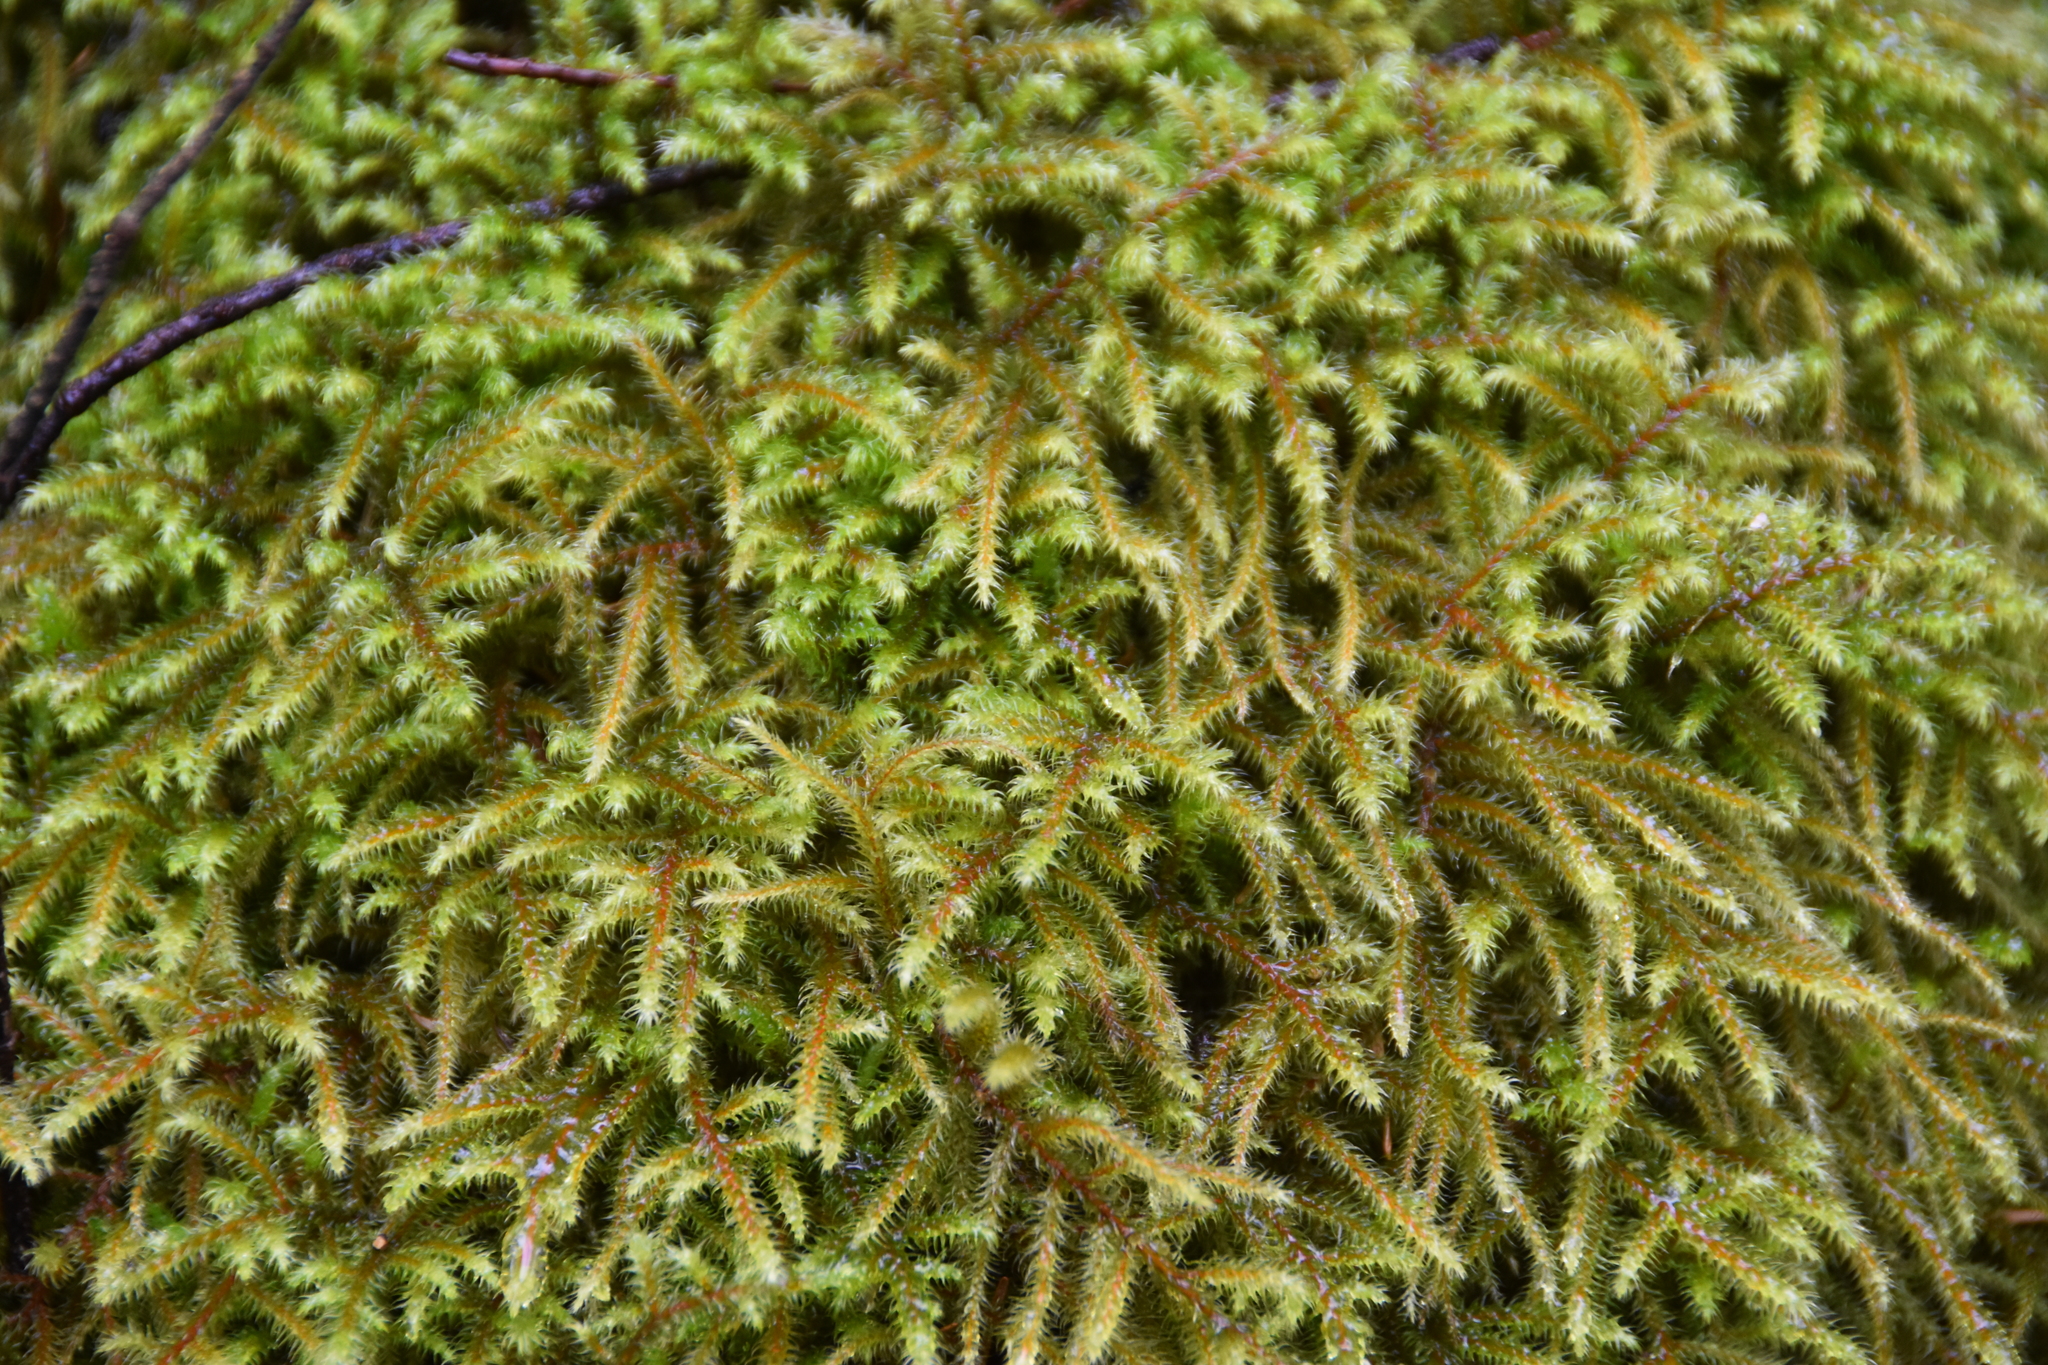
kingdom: Plantae
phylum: Bryophyta
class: Bryopsida
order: Hypnales
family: Hylocomiaceae
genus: Rhytidiadelphus
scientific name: Rhytidiadelphus loreus
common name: Lanky moss
